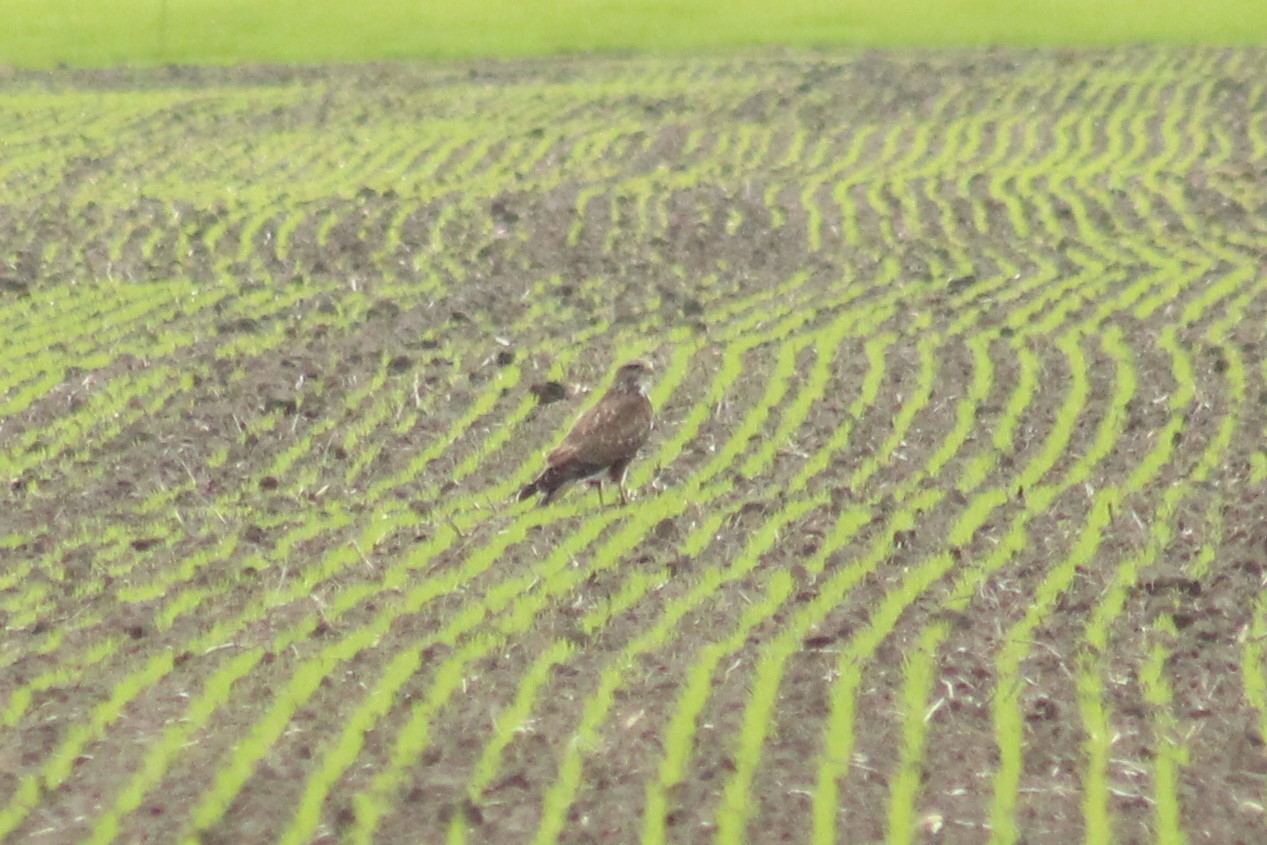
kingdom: Animalia
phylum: Chordata
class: Aves
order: Accipitriformes
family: Accipitridae
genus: Buteo
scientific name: Buteo buteo
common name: Common buzzard
